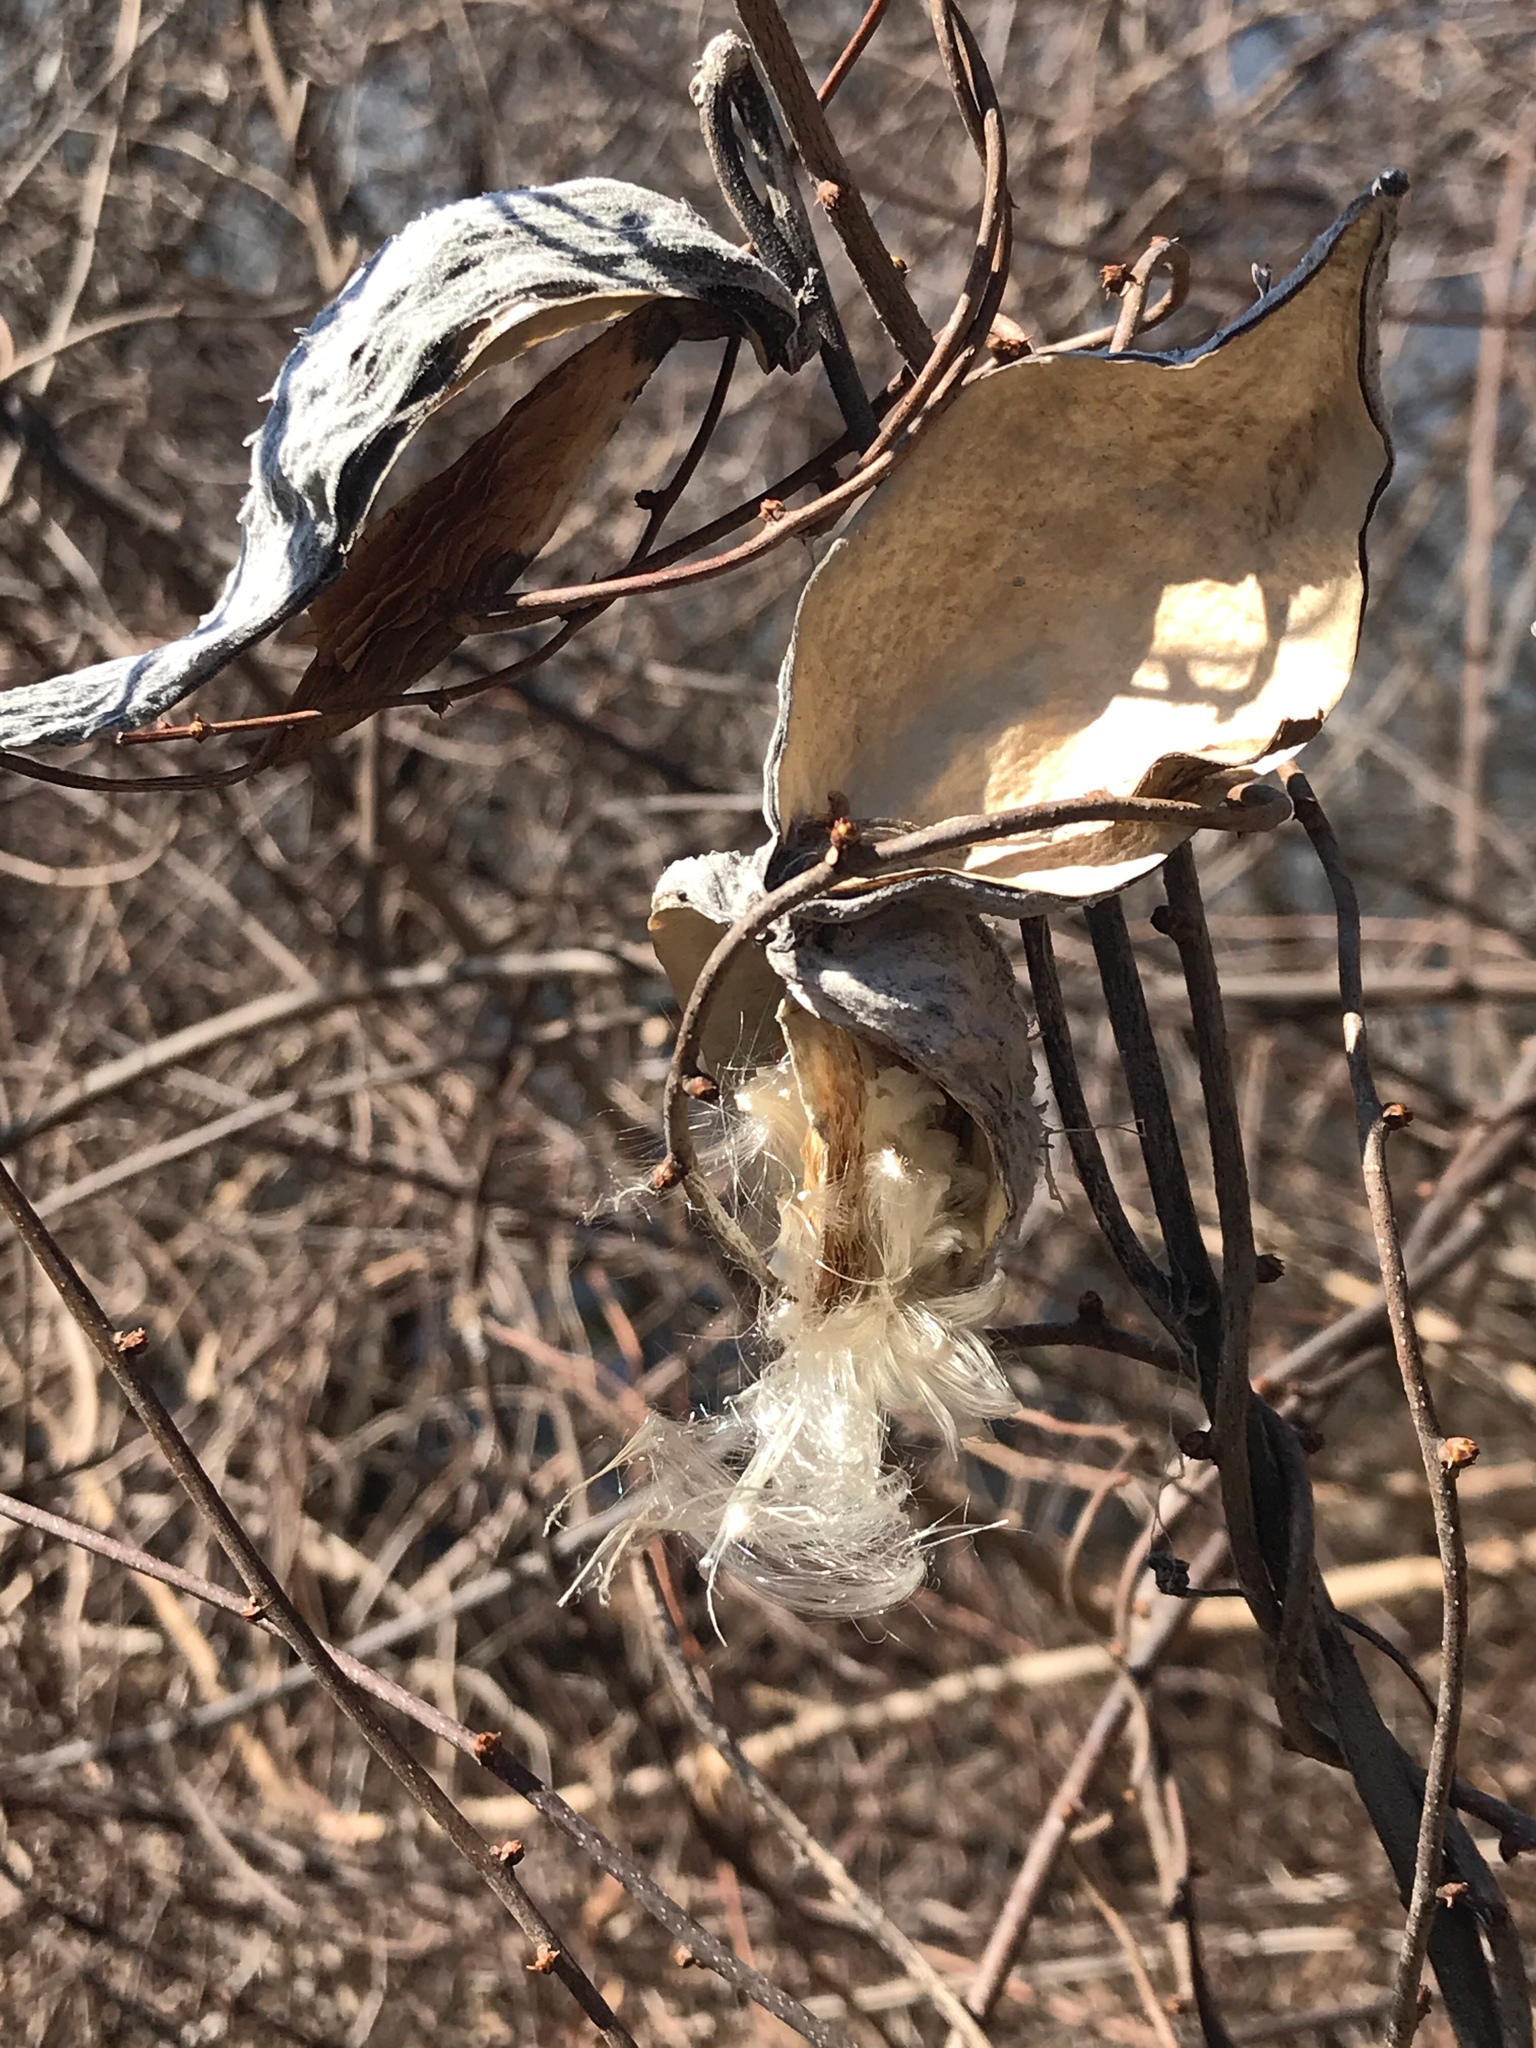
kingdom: Plantae
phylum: Tracheophyta
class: Magnoliopsida
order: Gentianales
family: Apocynaceae
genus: Asclepias
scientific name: Asclepias syriaca
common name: Common milkweed
